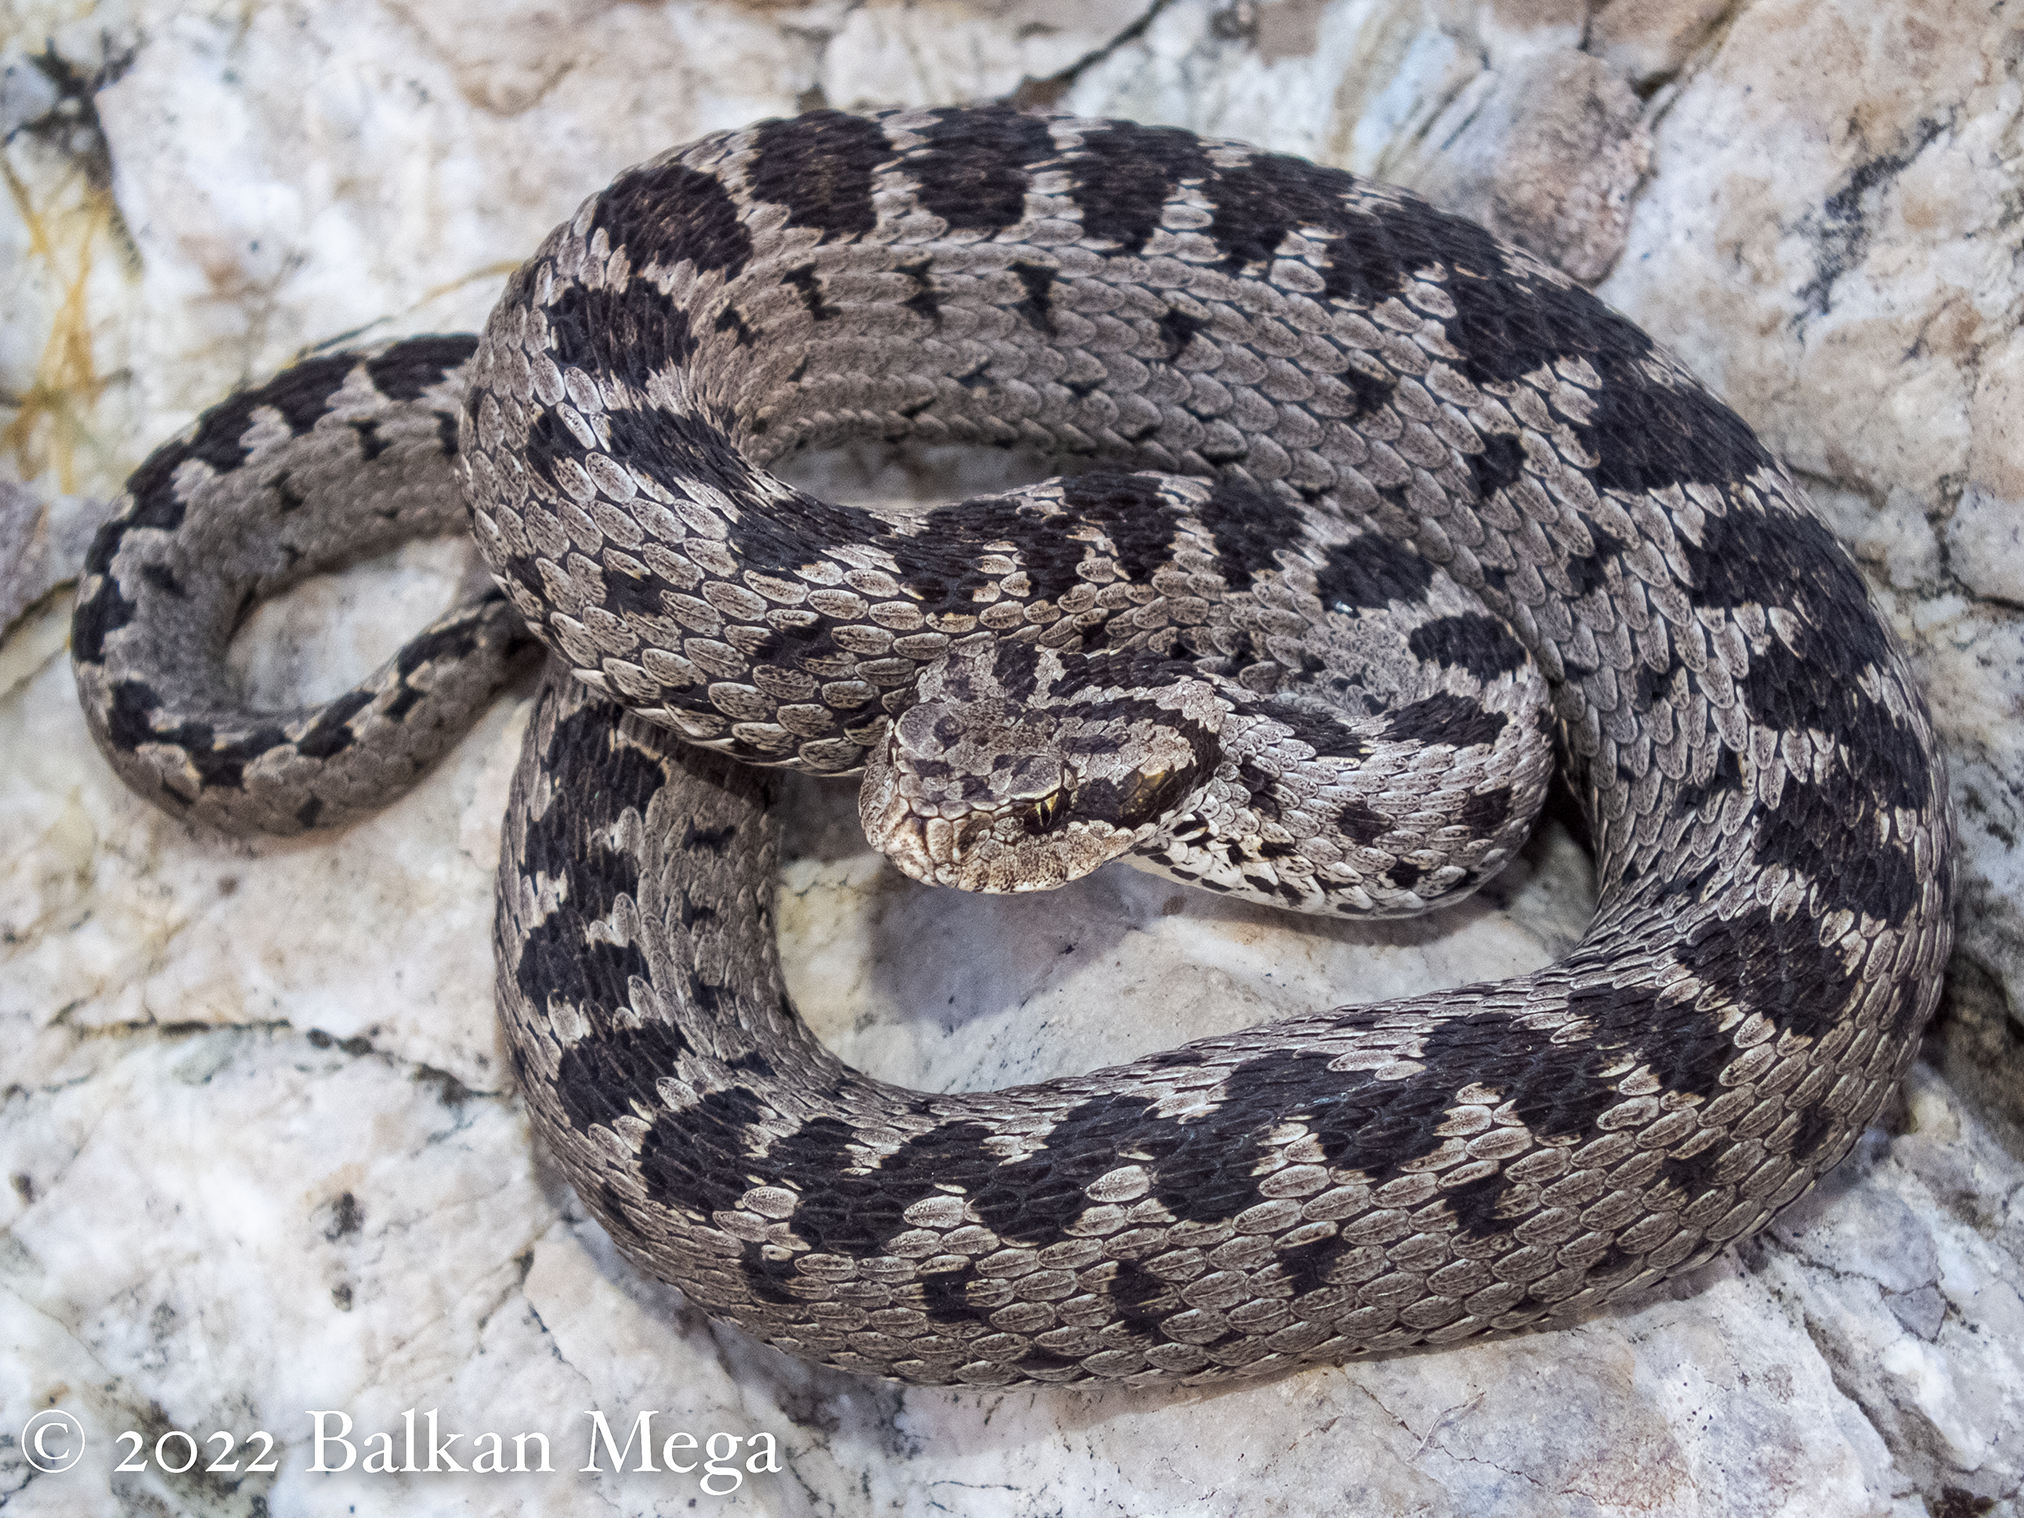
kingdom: Animalia
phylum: Chordata
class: Squamata
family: Viperidae
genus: Vipera
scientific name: Vipera anatolica
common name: Anatolian meadow viper
